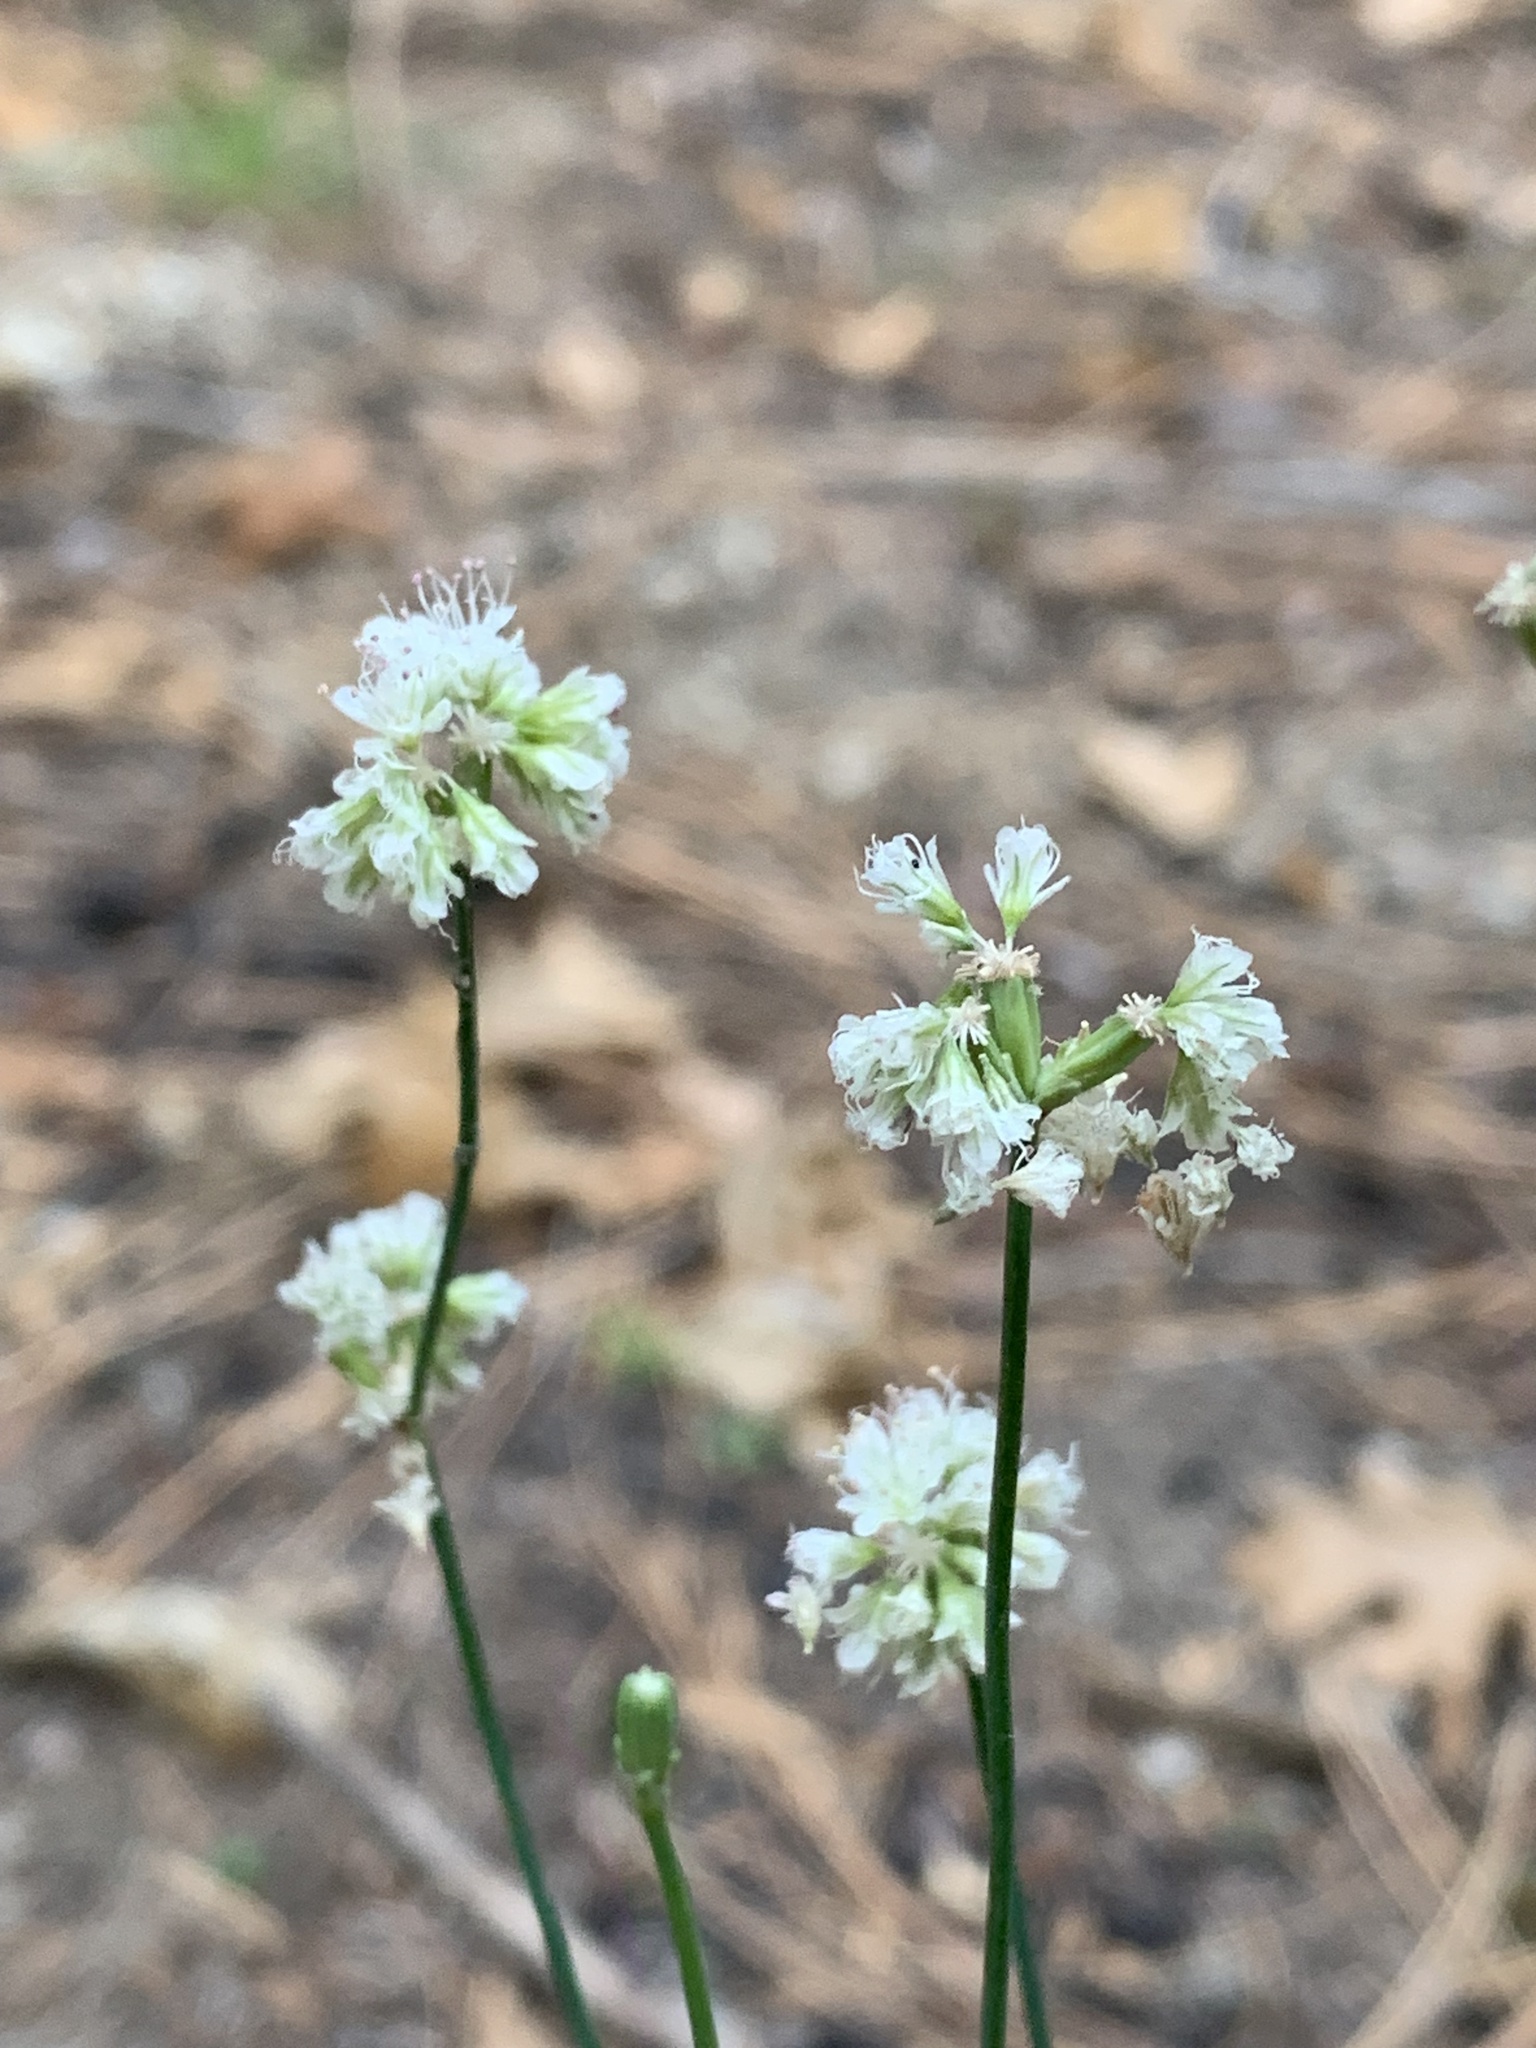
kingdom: Plantae
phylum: Tracheophyta
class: Magnoliopsida
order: Caryophyllales
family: Polygonaceae
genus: Eriogonum
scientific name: Eriogonum nudum
